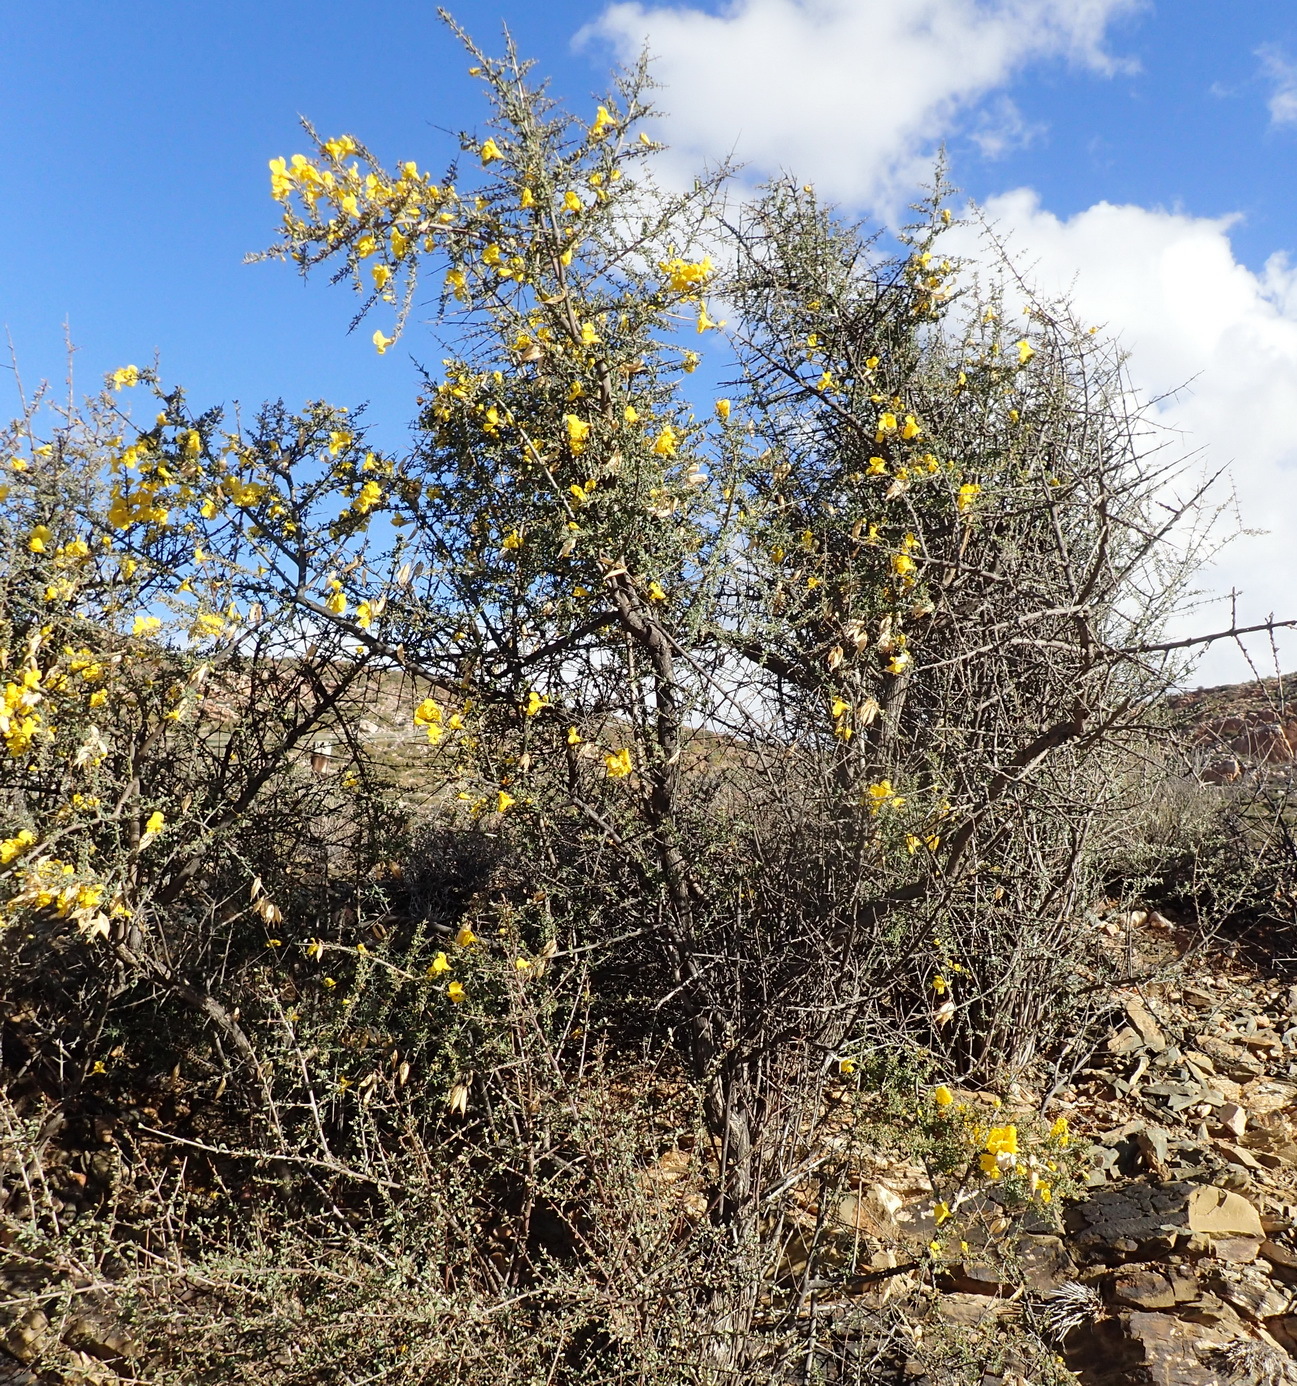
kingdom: Plantae
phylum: Tracheophyta
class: Magnoliopsida
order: Lamiales
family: Bignoniaceae
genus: Rhigozum
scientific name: Rhigozum obovatum
